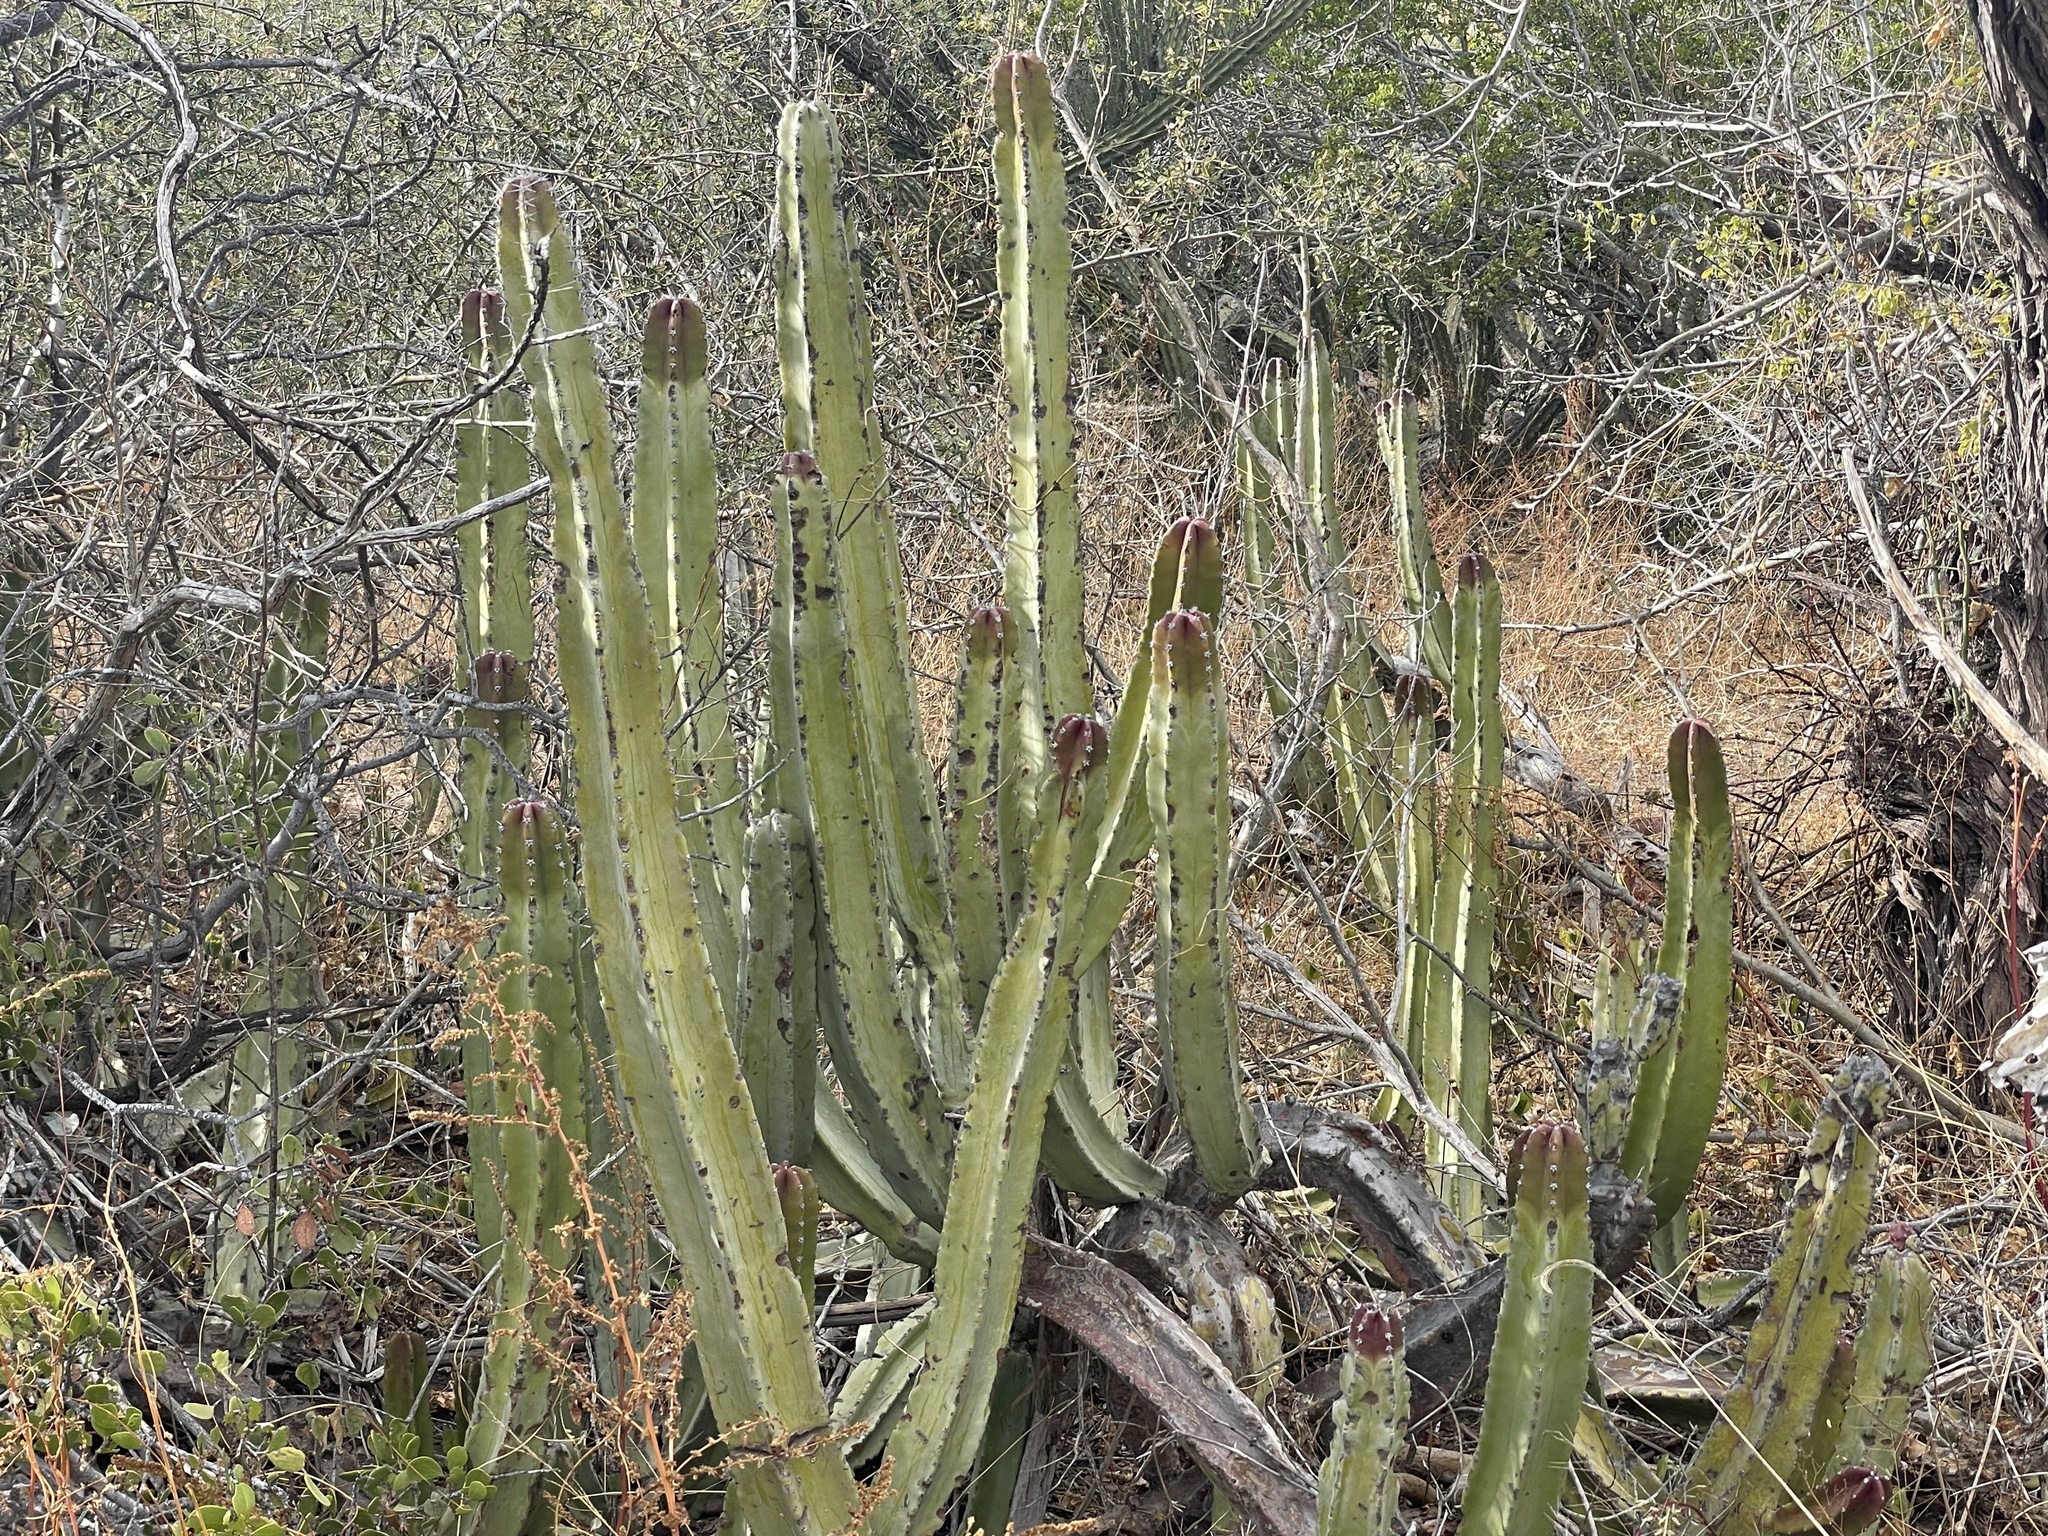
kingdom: Plantae
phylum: Tracheophyta
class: Magnoliopsida
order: Caryophyllales
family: Cactaceae
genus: Pachycereus
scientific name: Pachycereus schottii
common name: Senita cactus
